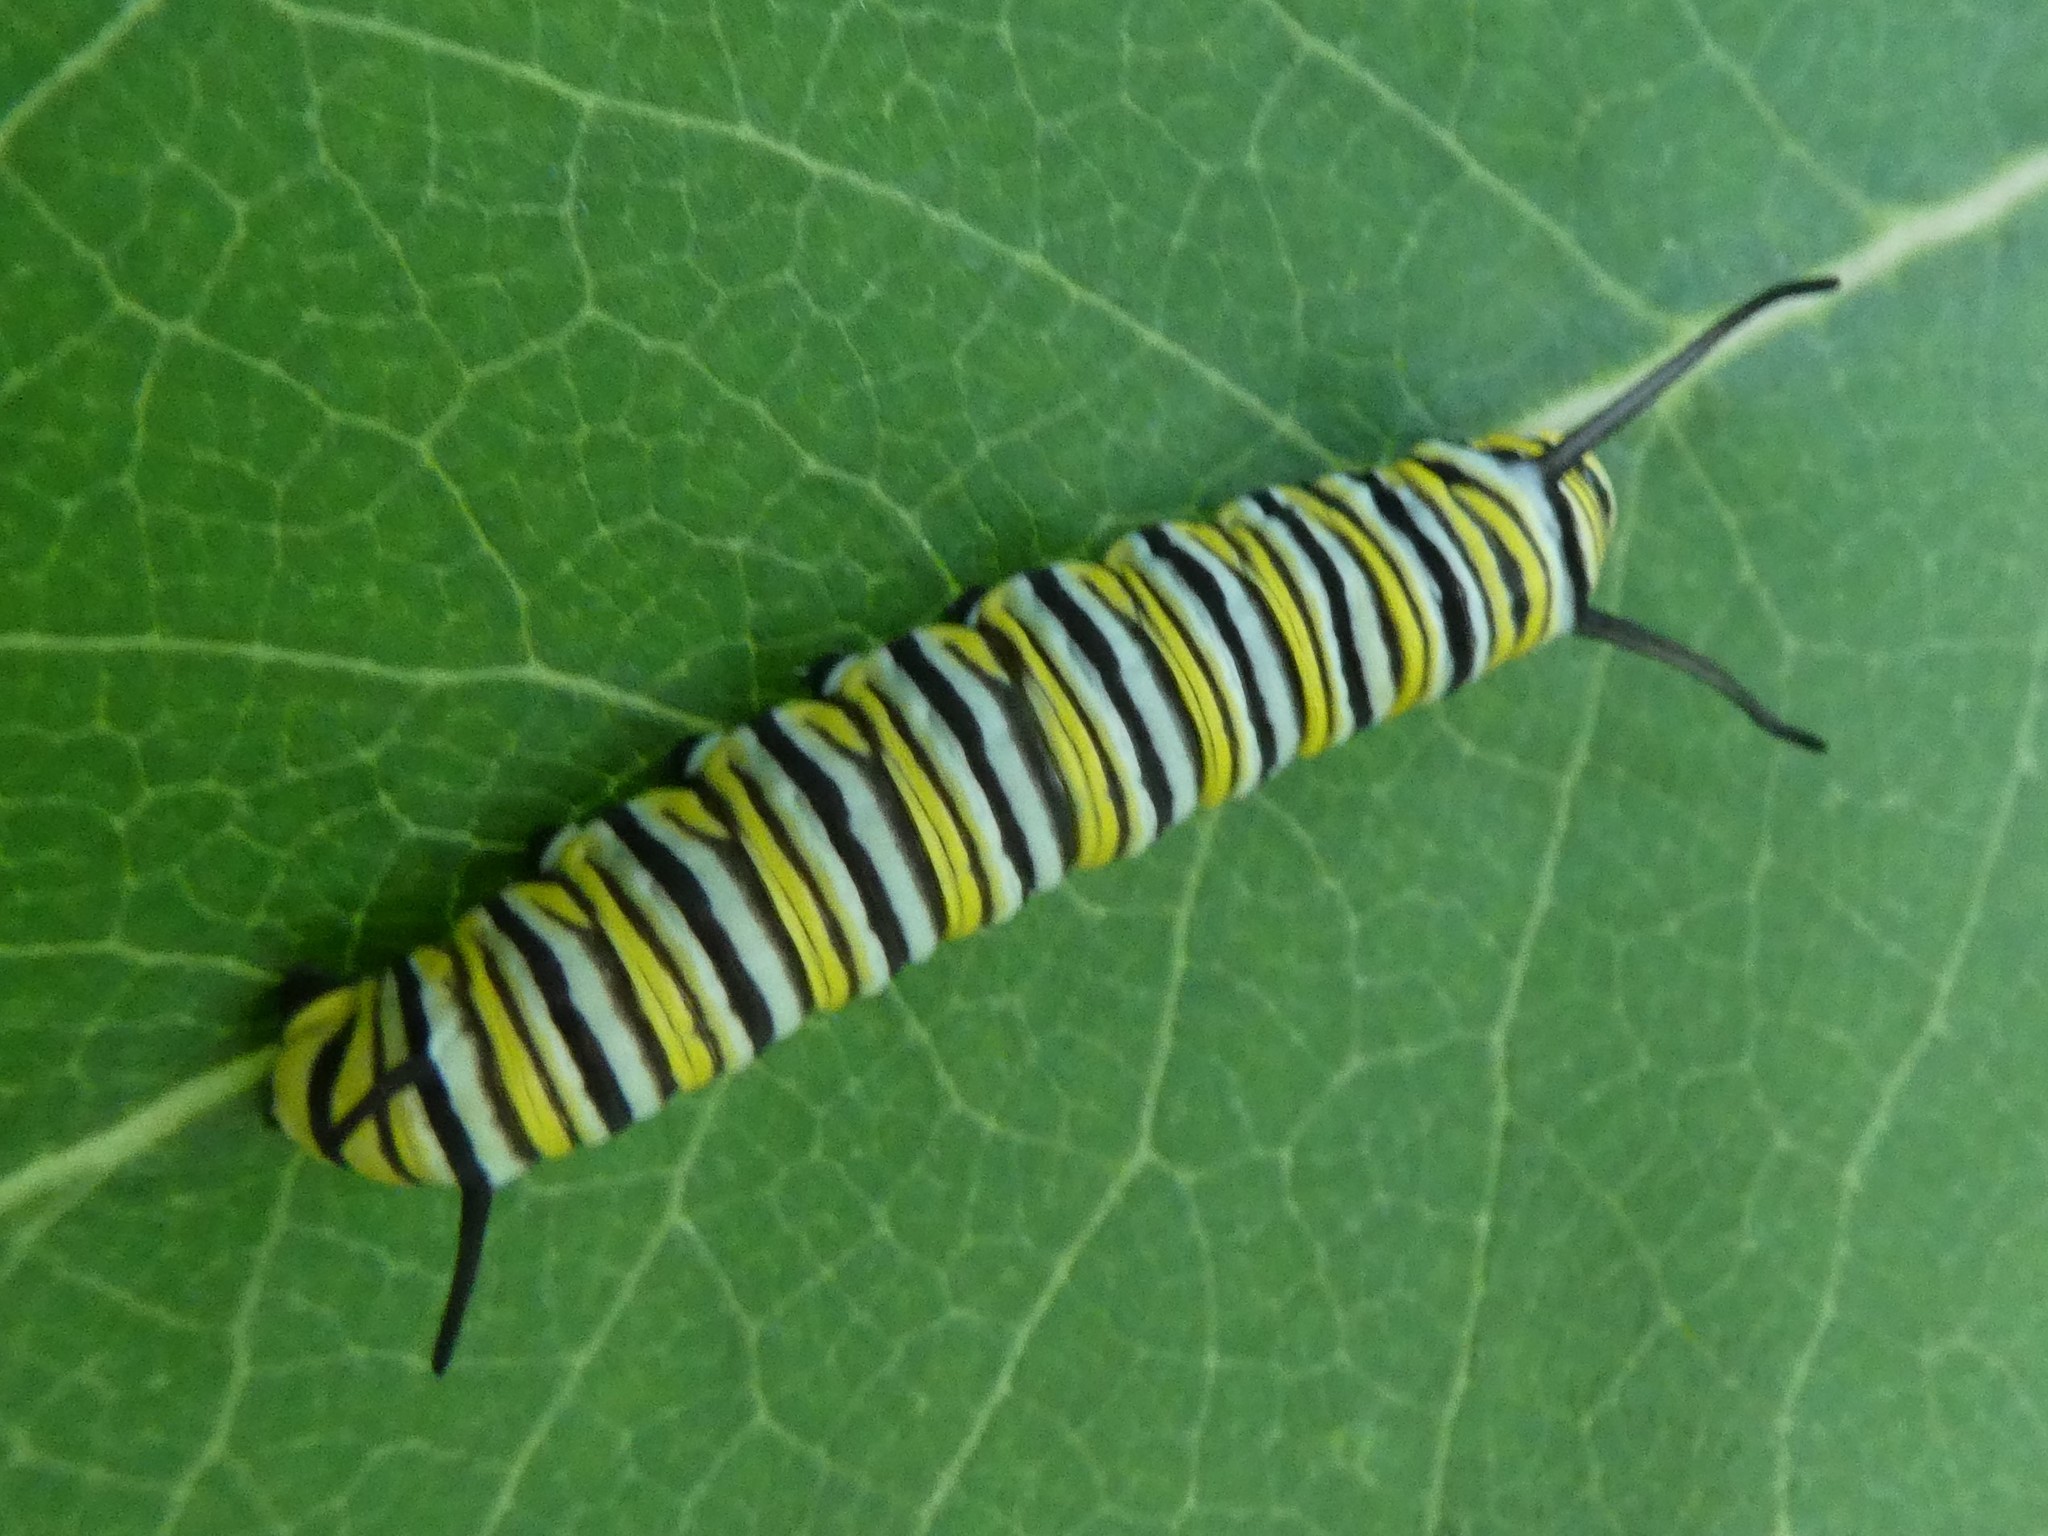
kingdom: Animalia
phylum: Arthropoda
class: Insecta
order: Lepidoptera
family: Nymphalidae
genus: Danaus
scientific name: Danaus plexippus
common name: Monarch
